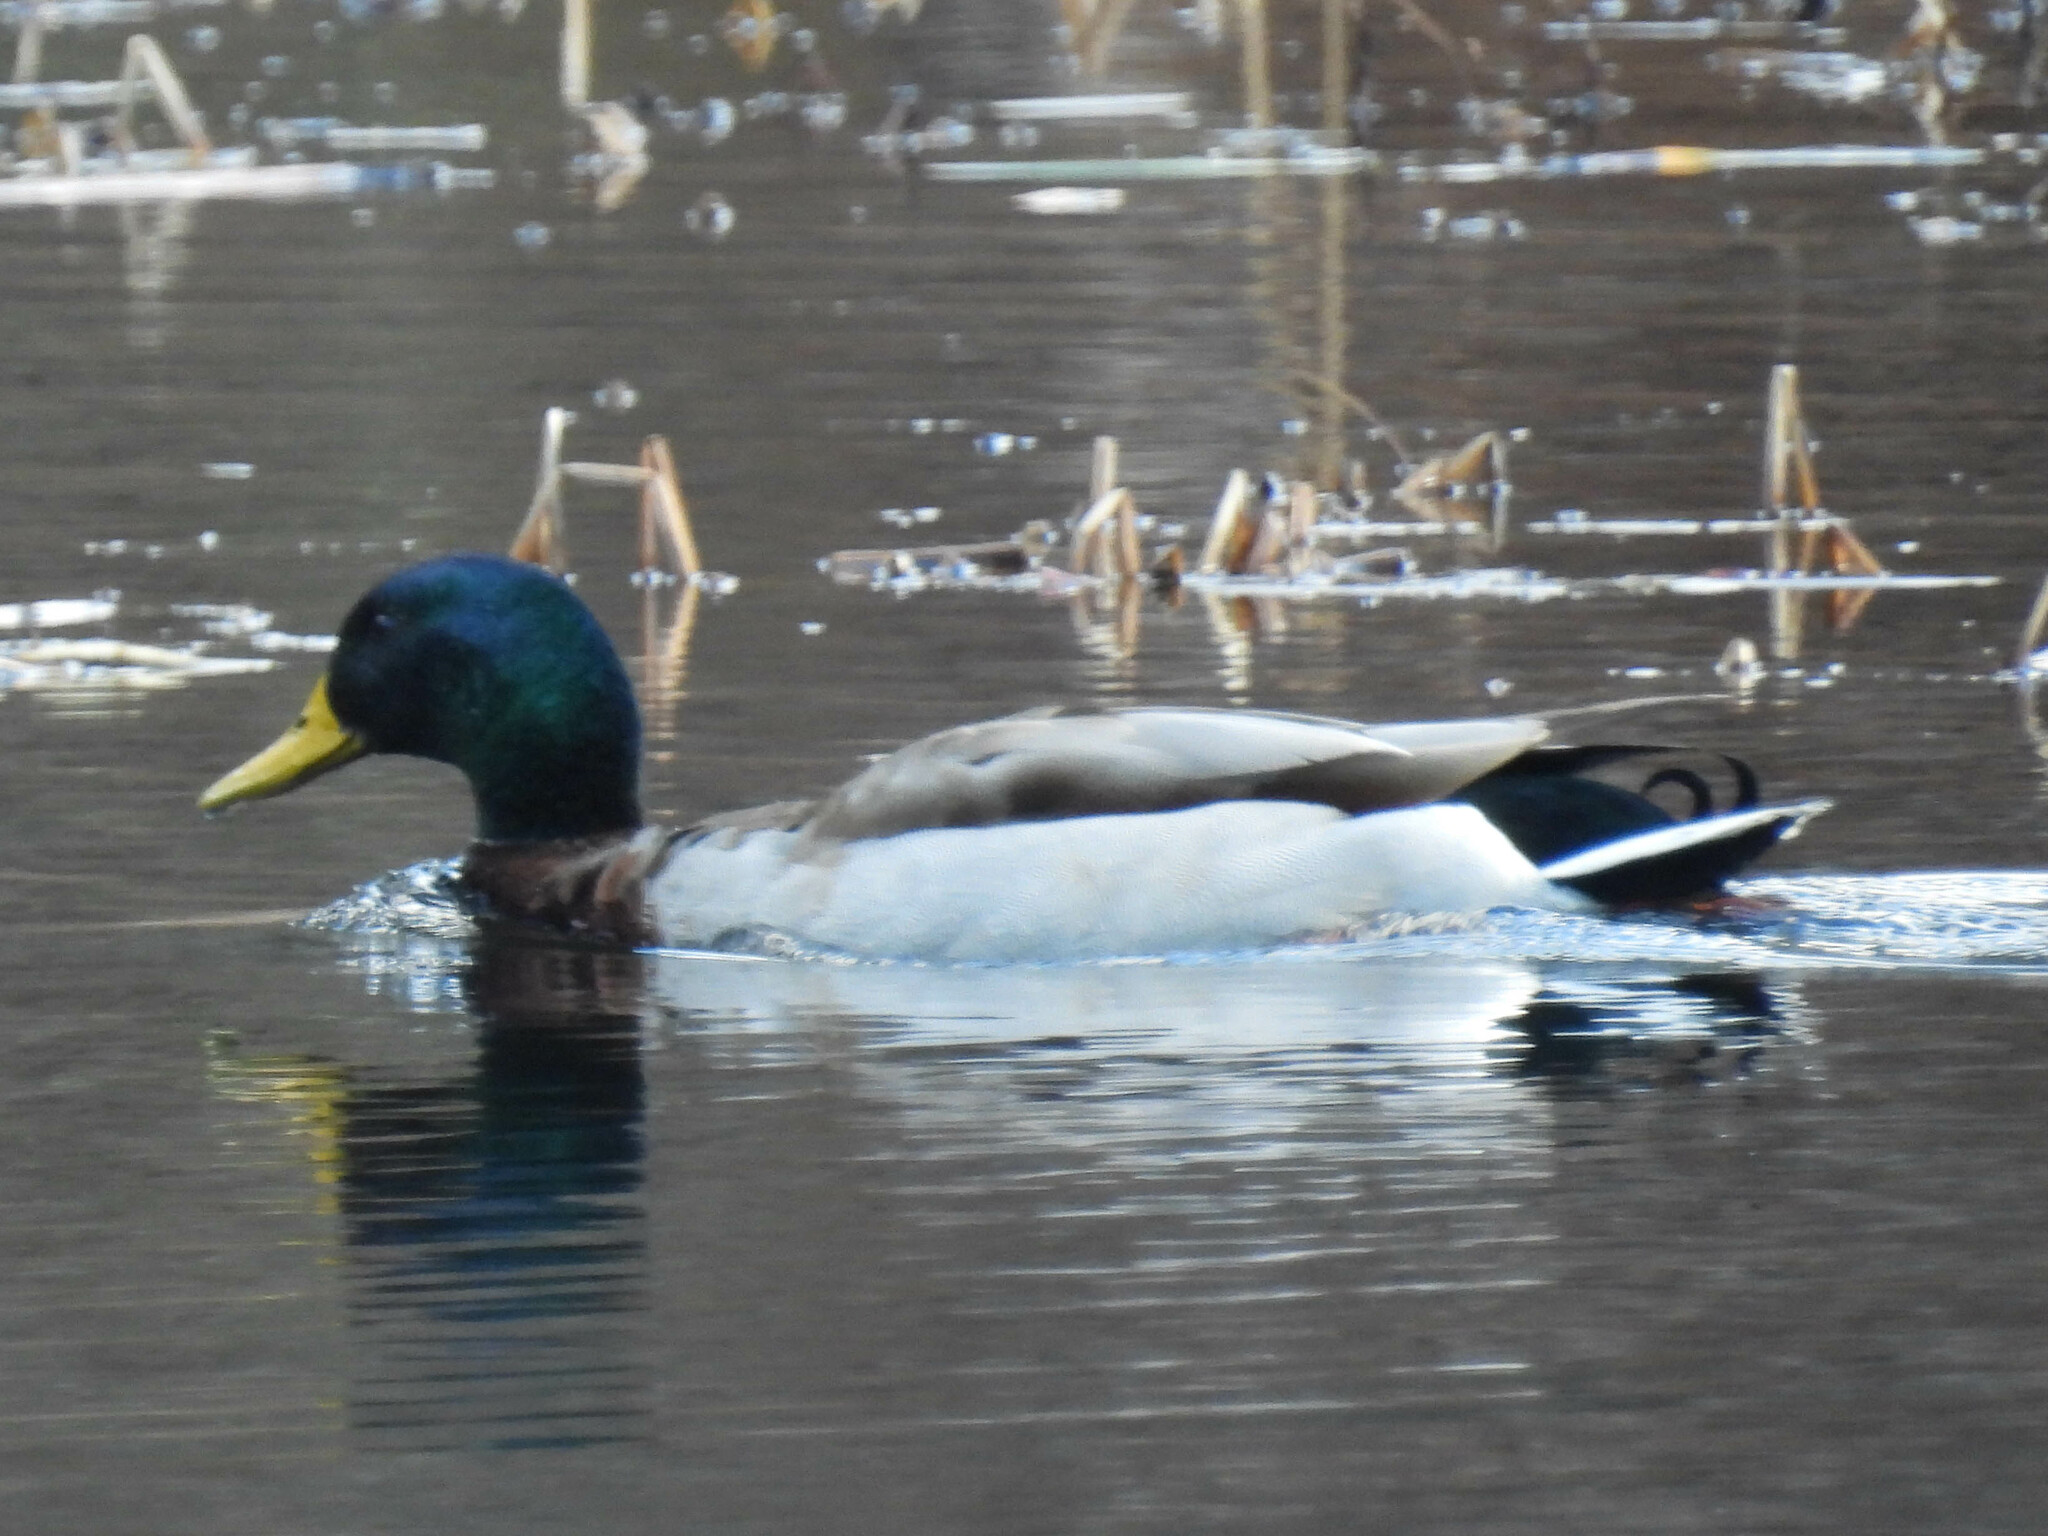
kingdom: Animalia
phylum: Chordata
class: Aves
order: Anseriformes
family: Anatidae
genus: Anas
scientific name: Anas platyrhynchos
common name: Mallard
